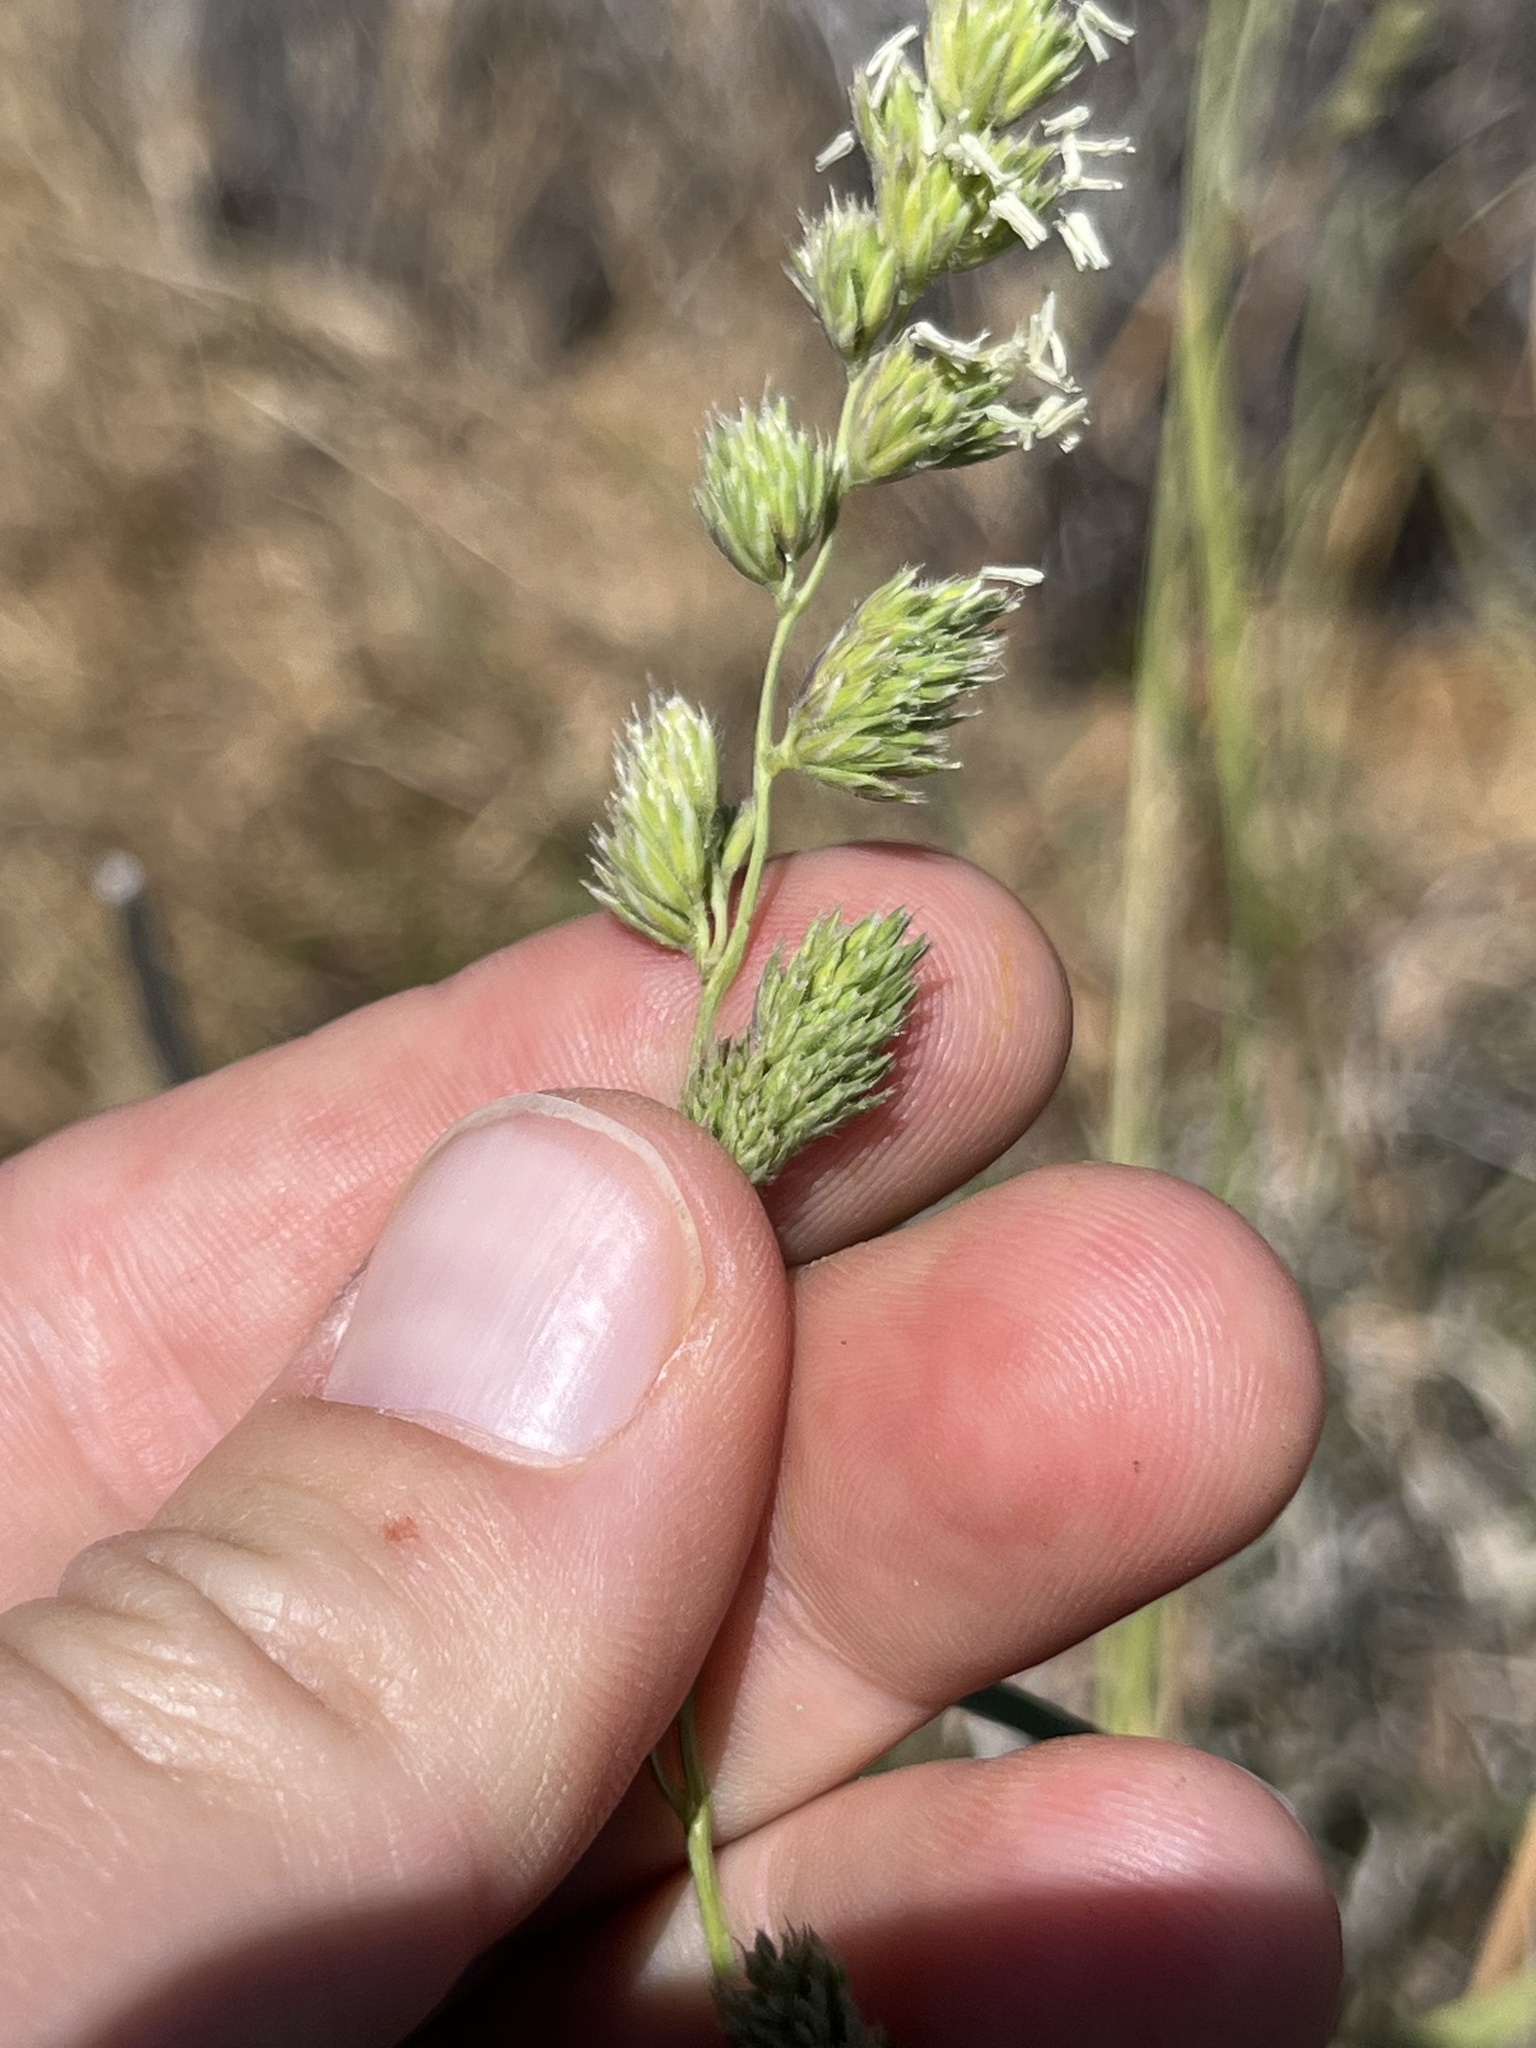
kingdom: Plantae
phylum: Tracheophyta
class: Liliopsida
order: Poales
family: Poaceae
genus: Dactylis
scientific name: Dactylis glomerata
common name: Orchardgrass
